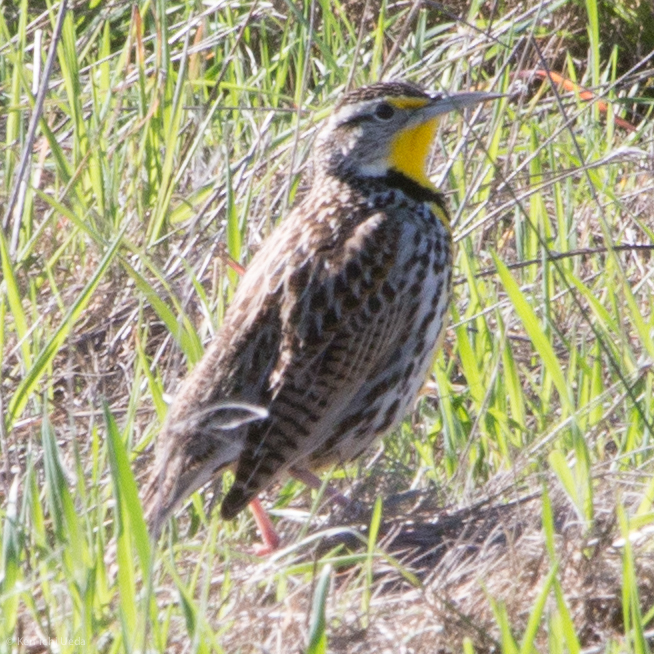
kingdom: Animalia
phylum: Chordata
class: Aves
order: Passeriformes
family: Icteridae
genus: Sturnella
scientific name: Sturnella neglecta
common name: Western meadowlark
